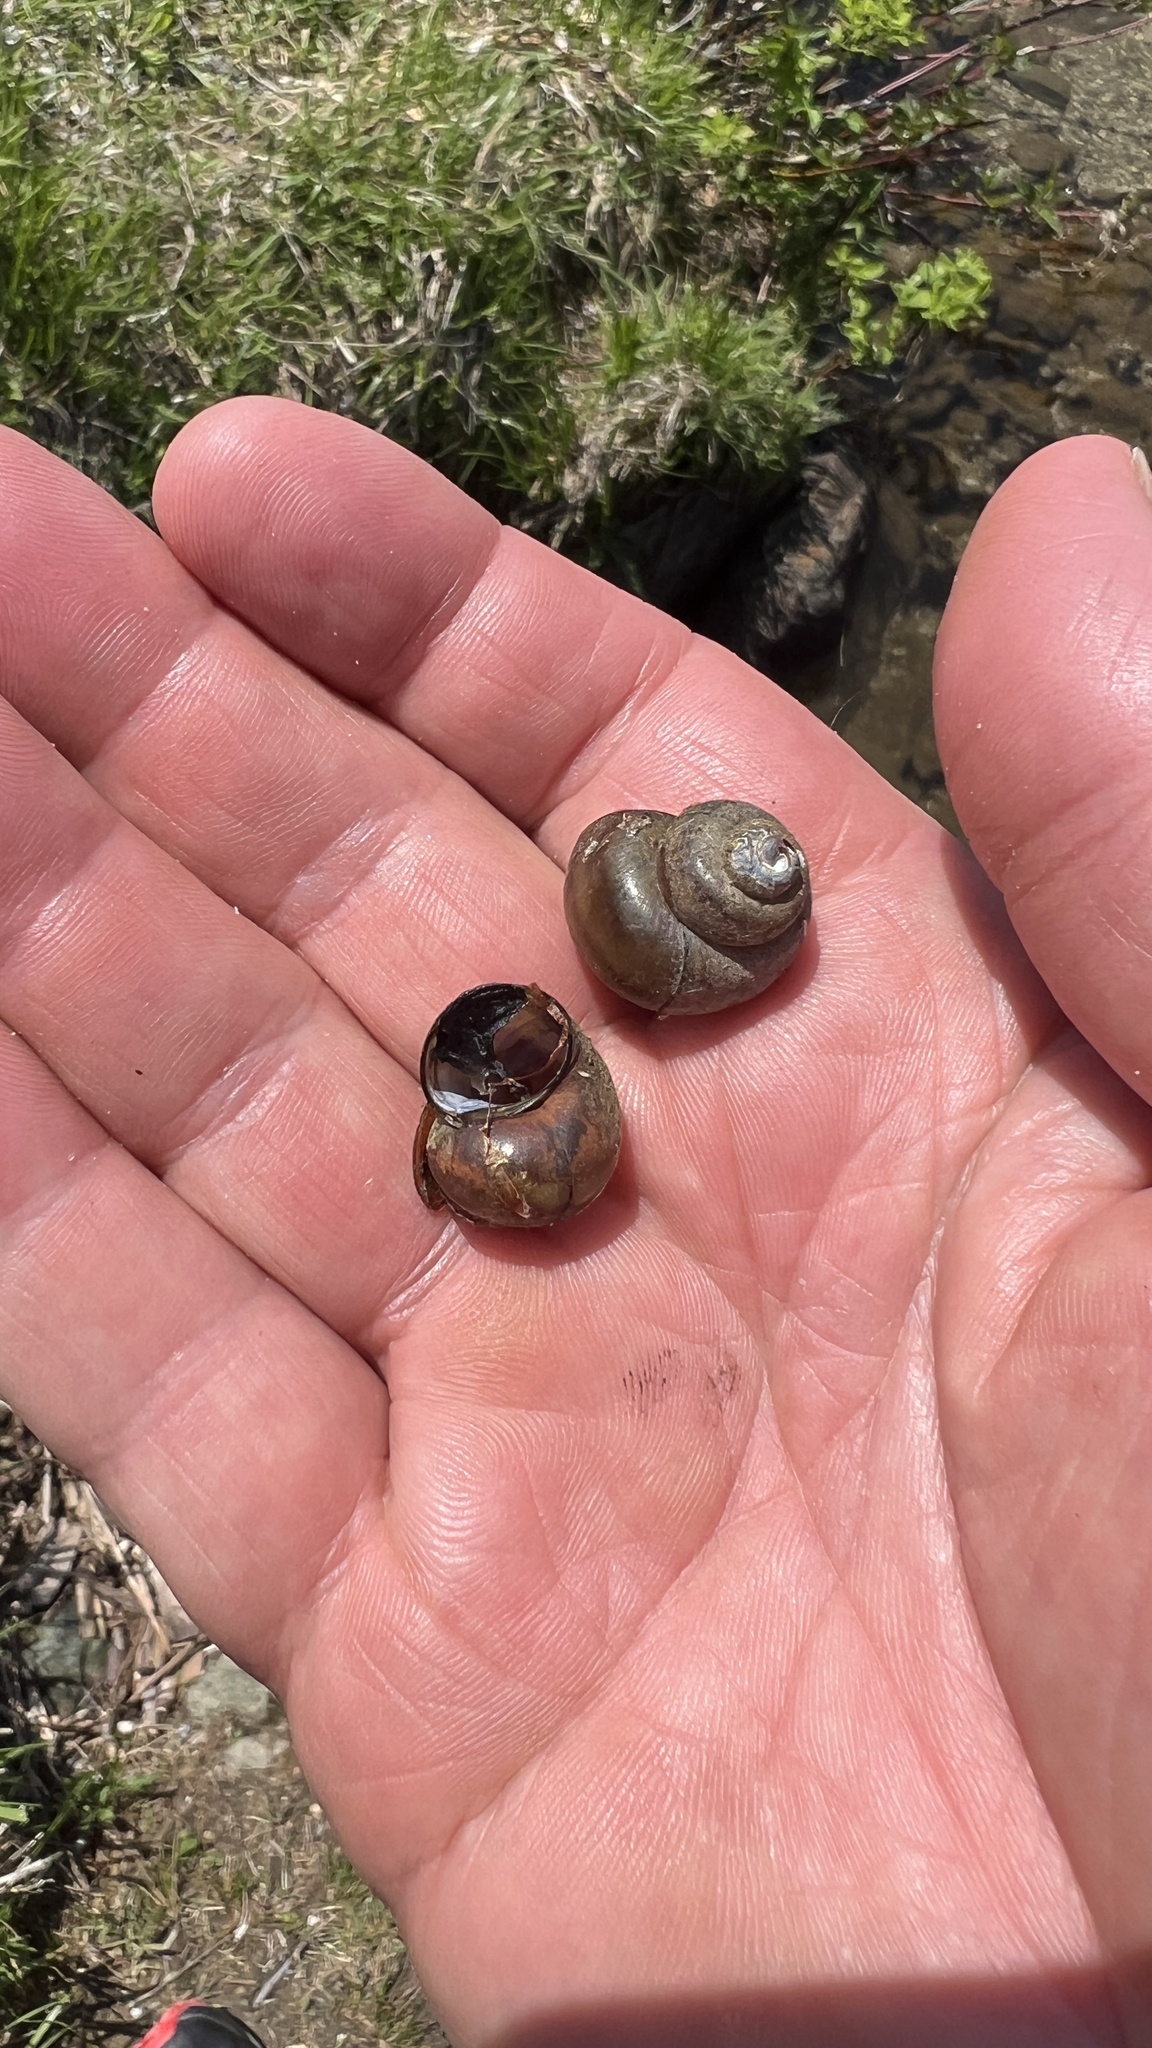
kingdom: Animalia
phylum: Mollusca
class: Gastropoda
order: Architaenioglossa
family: Viviparidae
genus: Callinina
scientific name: Callinina georgiana
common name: Banded mystery snail
